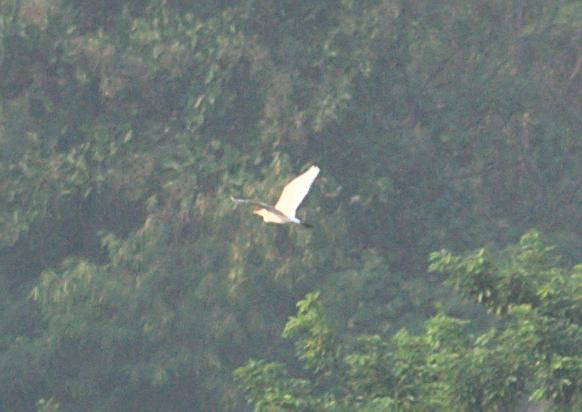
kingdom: Animalia
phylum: Chordata
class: Aves
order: Pelecaniformes
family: Ardeidae
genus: Bubulcus
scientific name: Bubulcus coromandus
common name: Eastern cattle egret
